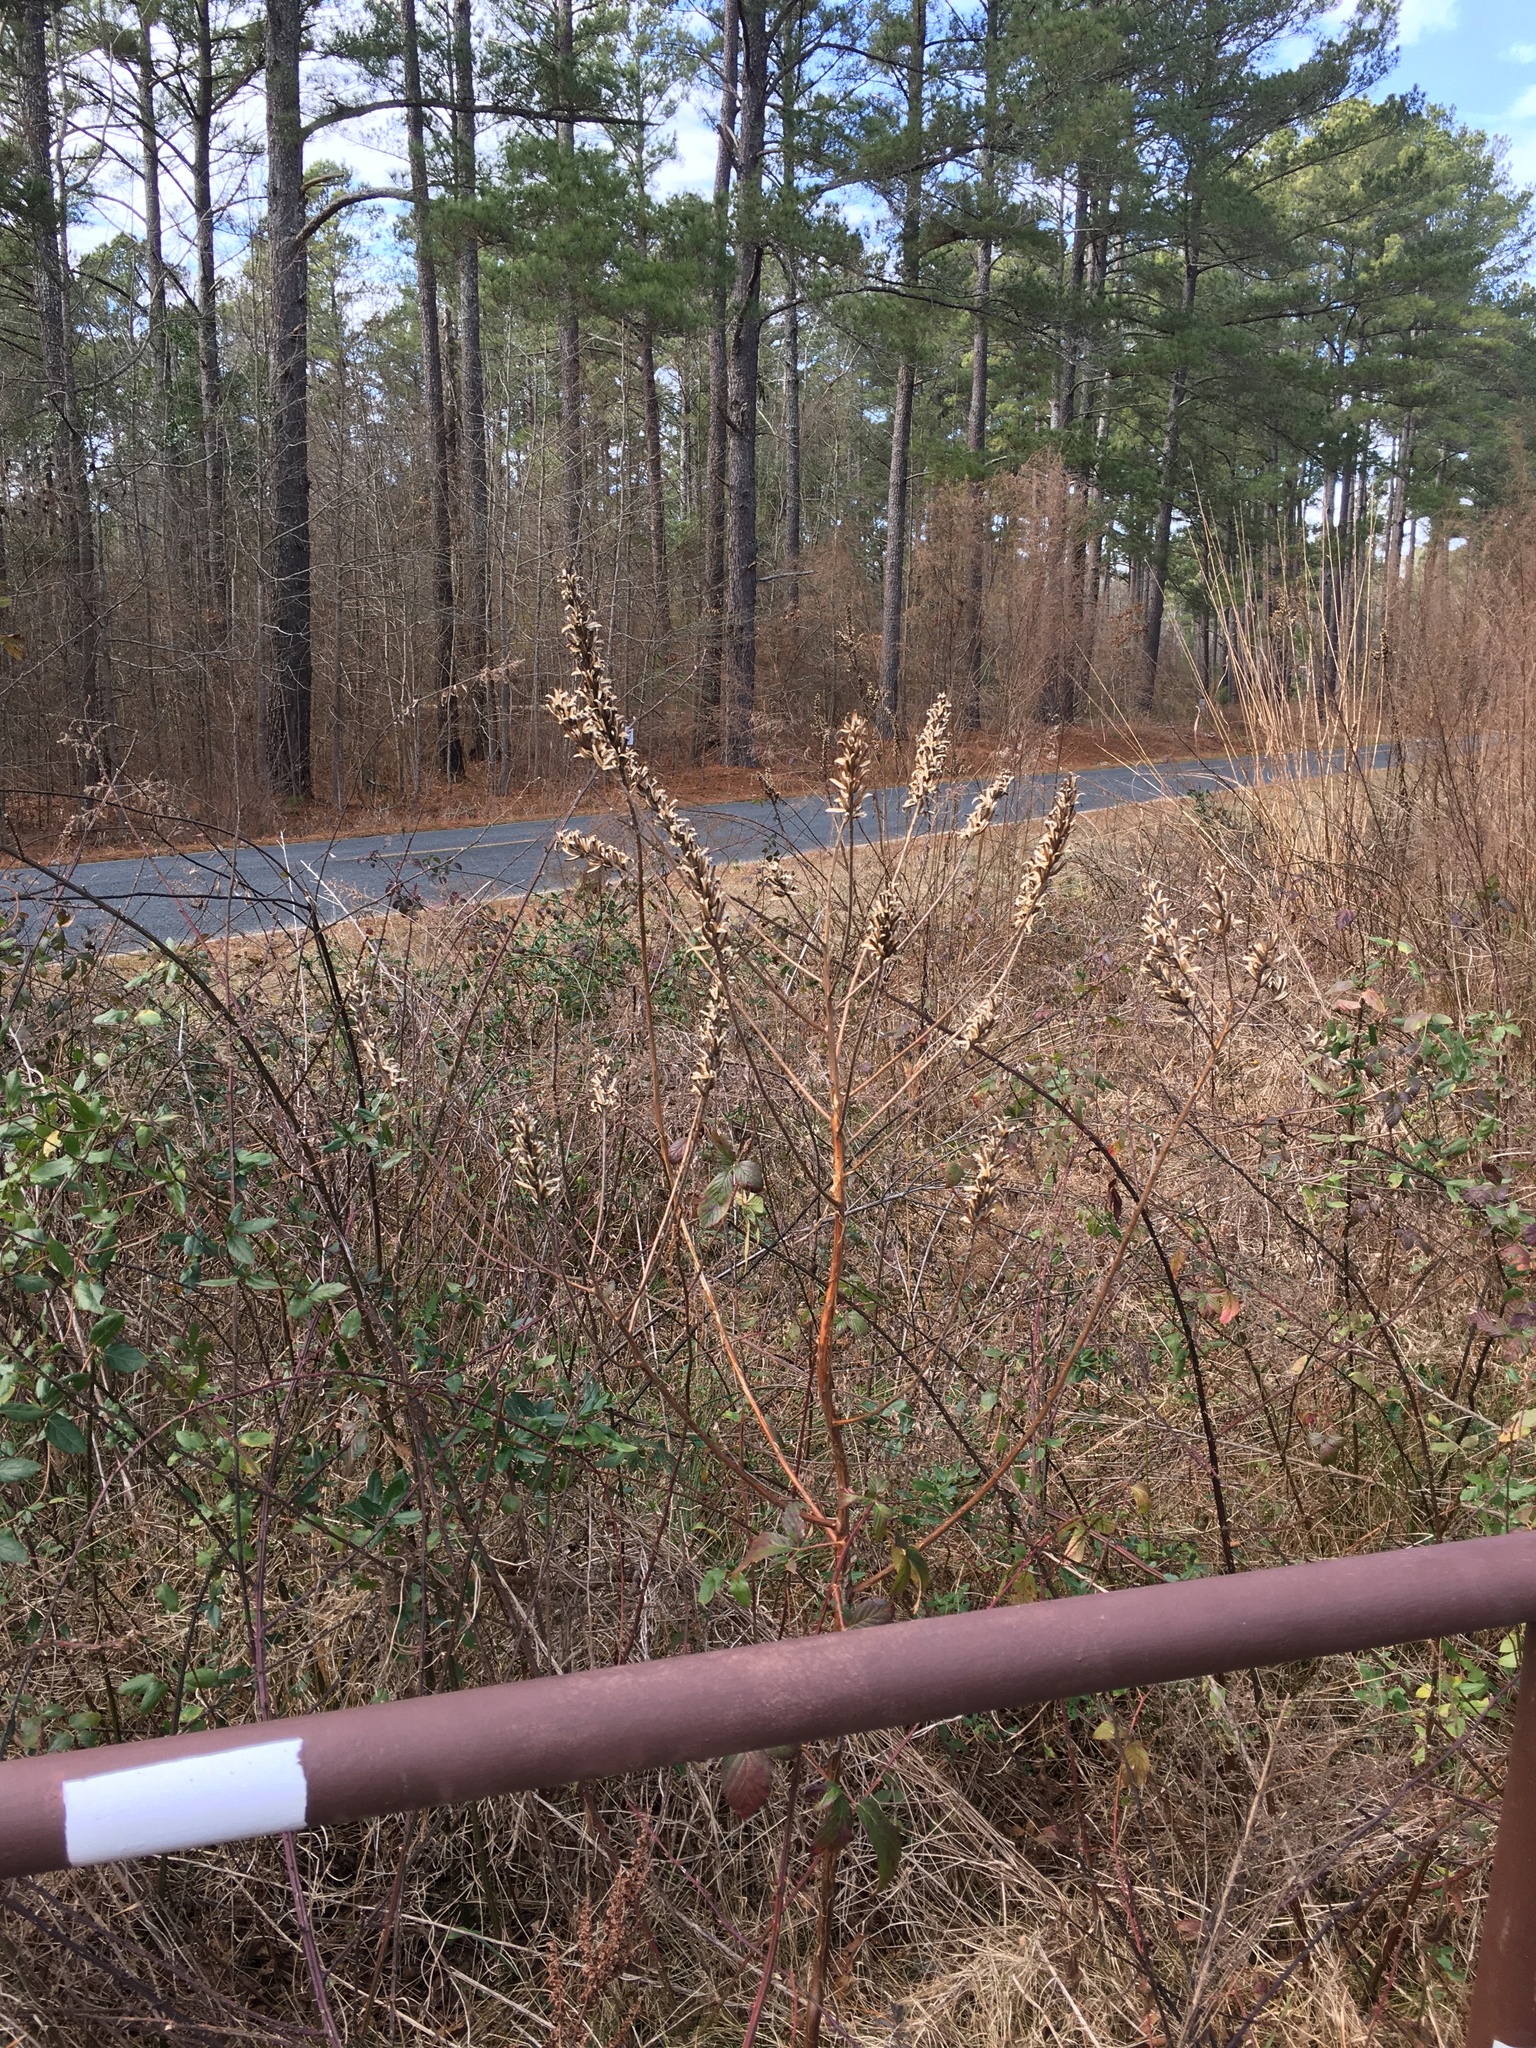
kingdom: Plantae
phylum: Tracheophyta
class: Magnoliopsida
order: Myrtales
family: Onagraceae
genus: Oenothera
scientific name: Oenothera biennis
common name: Common evening-primrose
